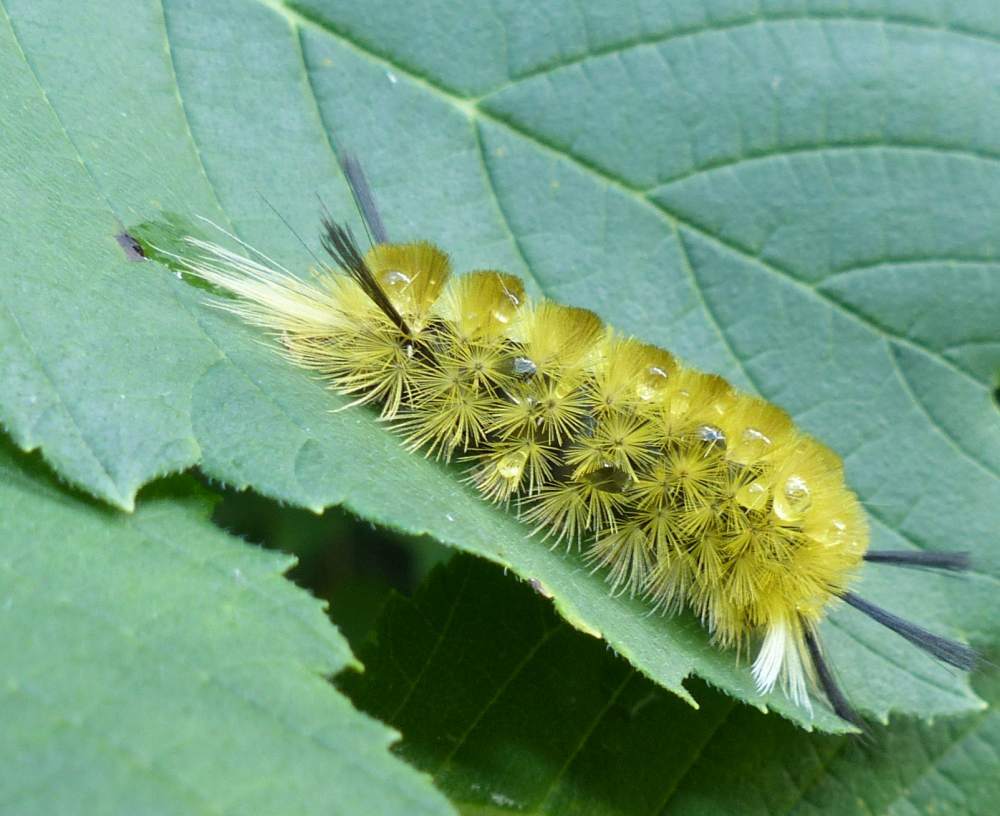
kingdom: Animalia
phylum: Arthropoda
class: Insecta
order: Lepidoptera
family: Erebidae
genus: Halysidota
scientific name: Halysidota tessellaris
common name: Banded tussock moth
